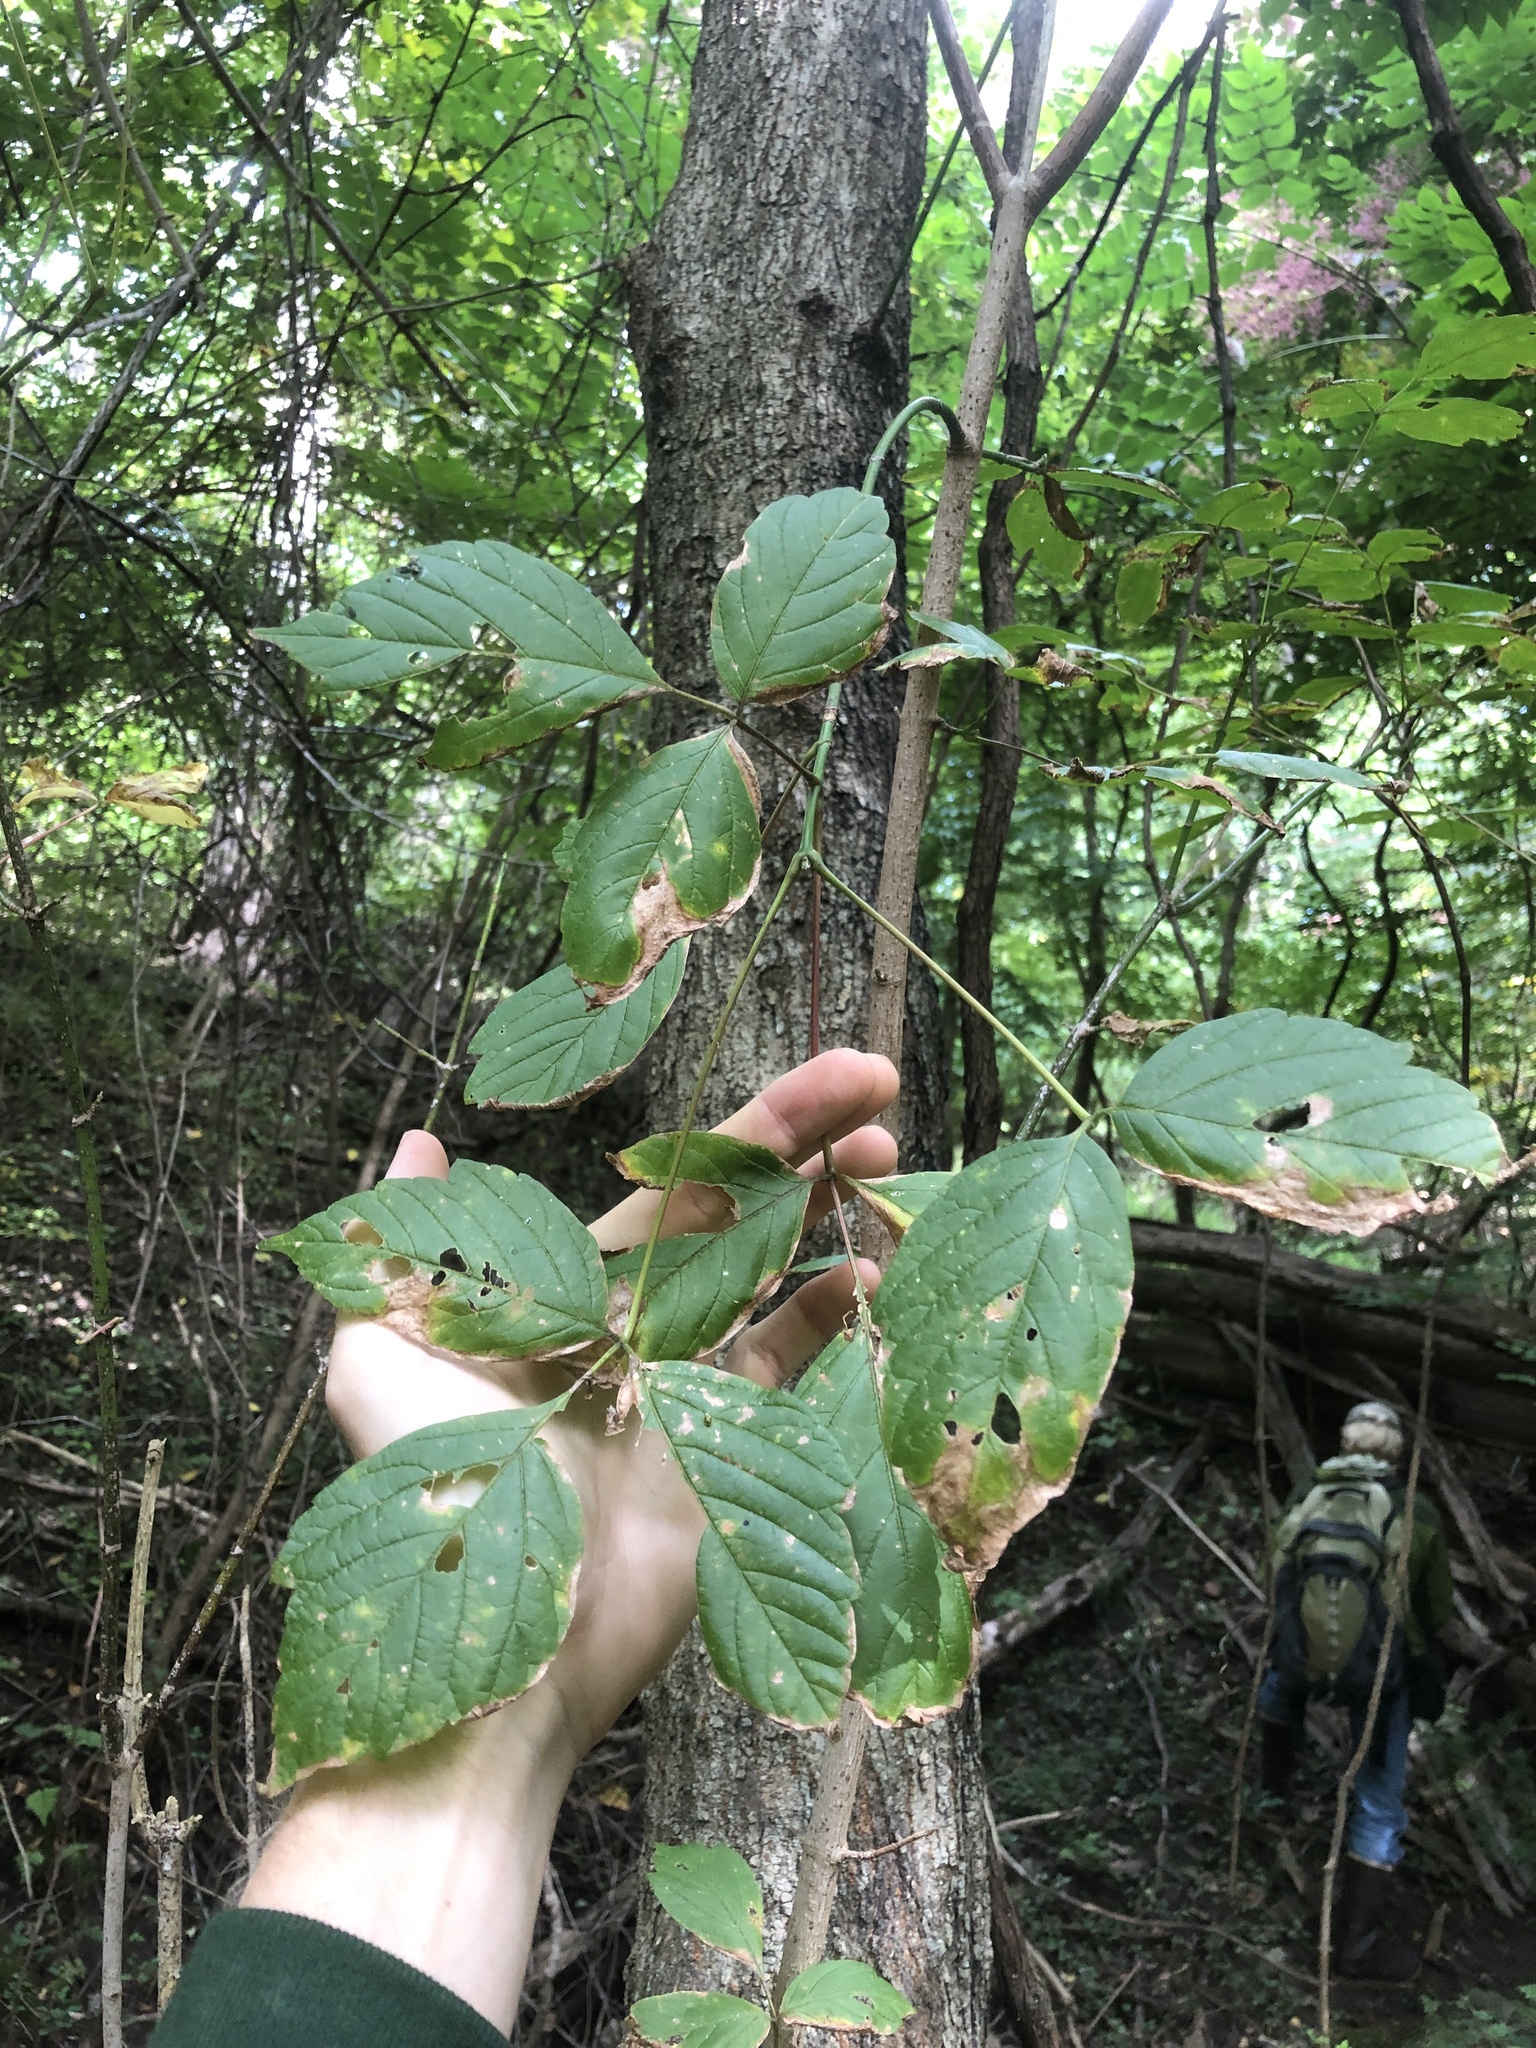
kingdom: Plantae
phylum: Tracheophyta
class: Magnoliopsida
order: Sapindales
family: Sapindaceae
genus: Acer
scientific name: Acer negundo
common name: Ashleaf maple
